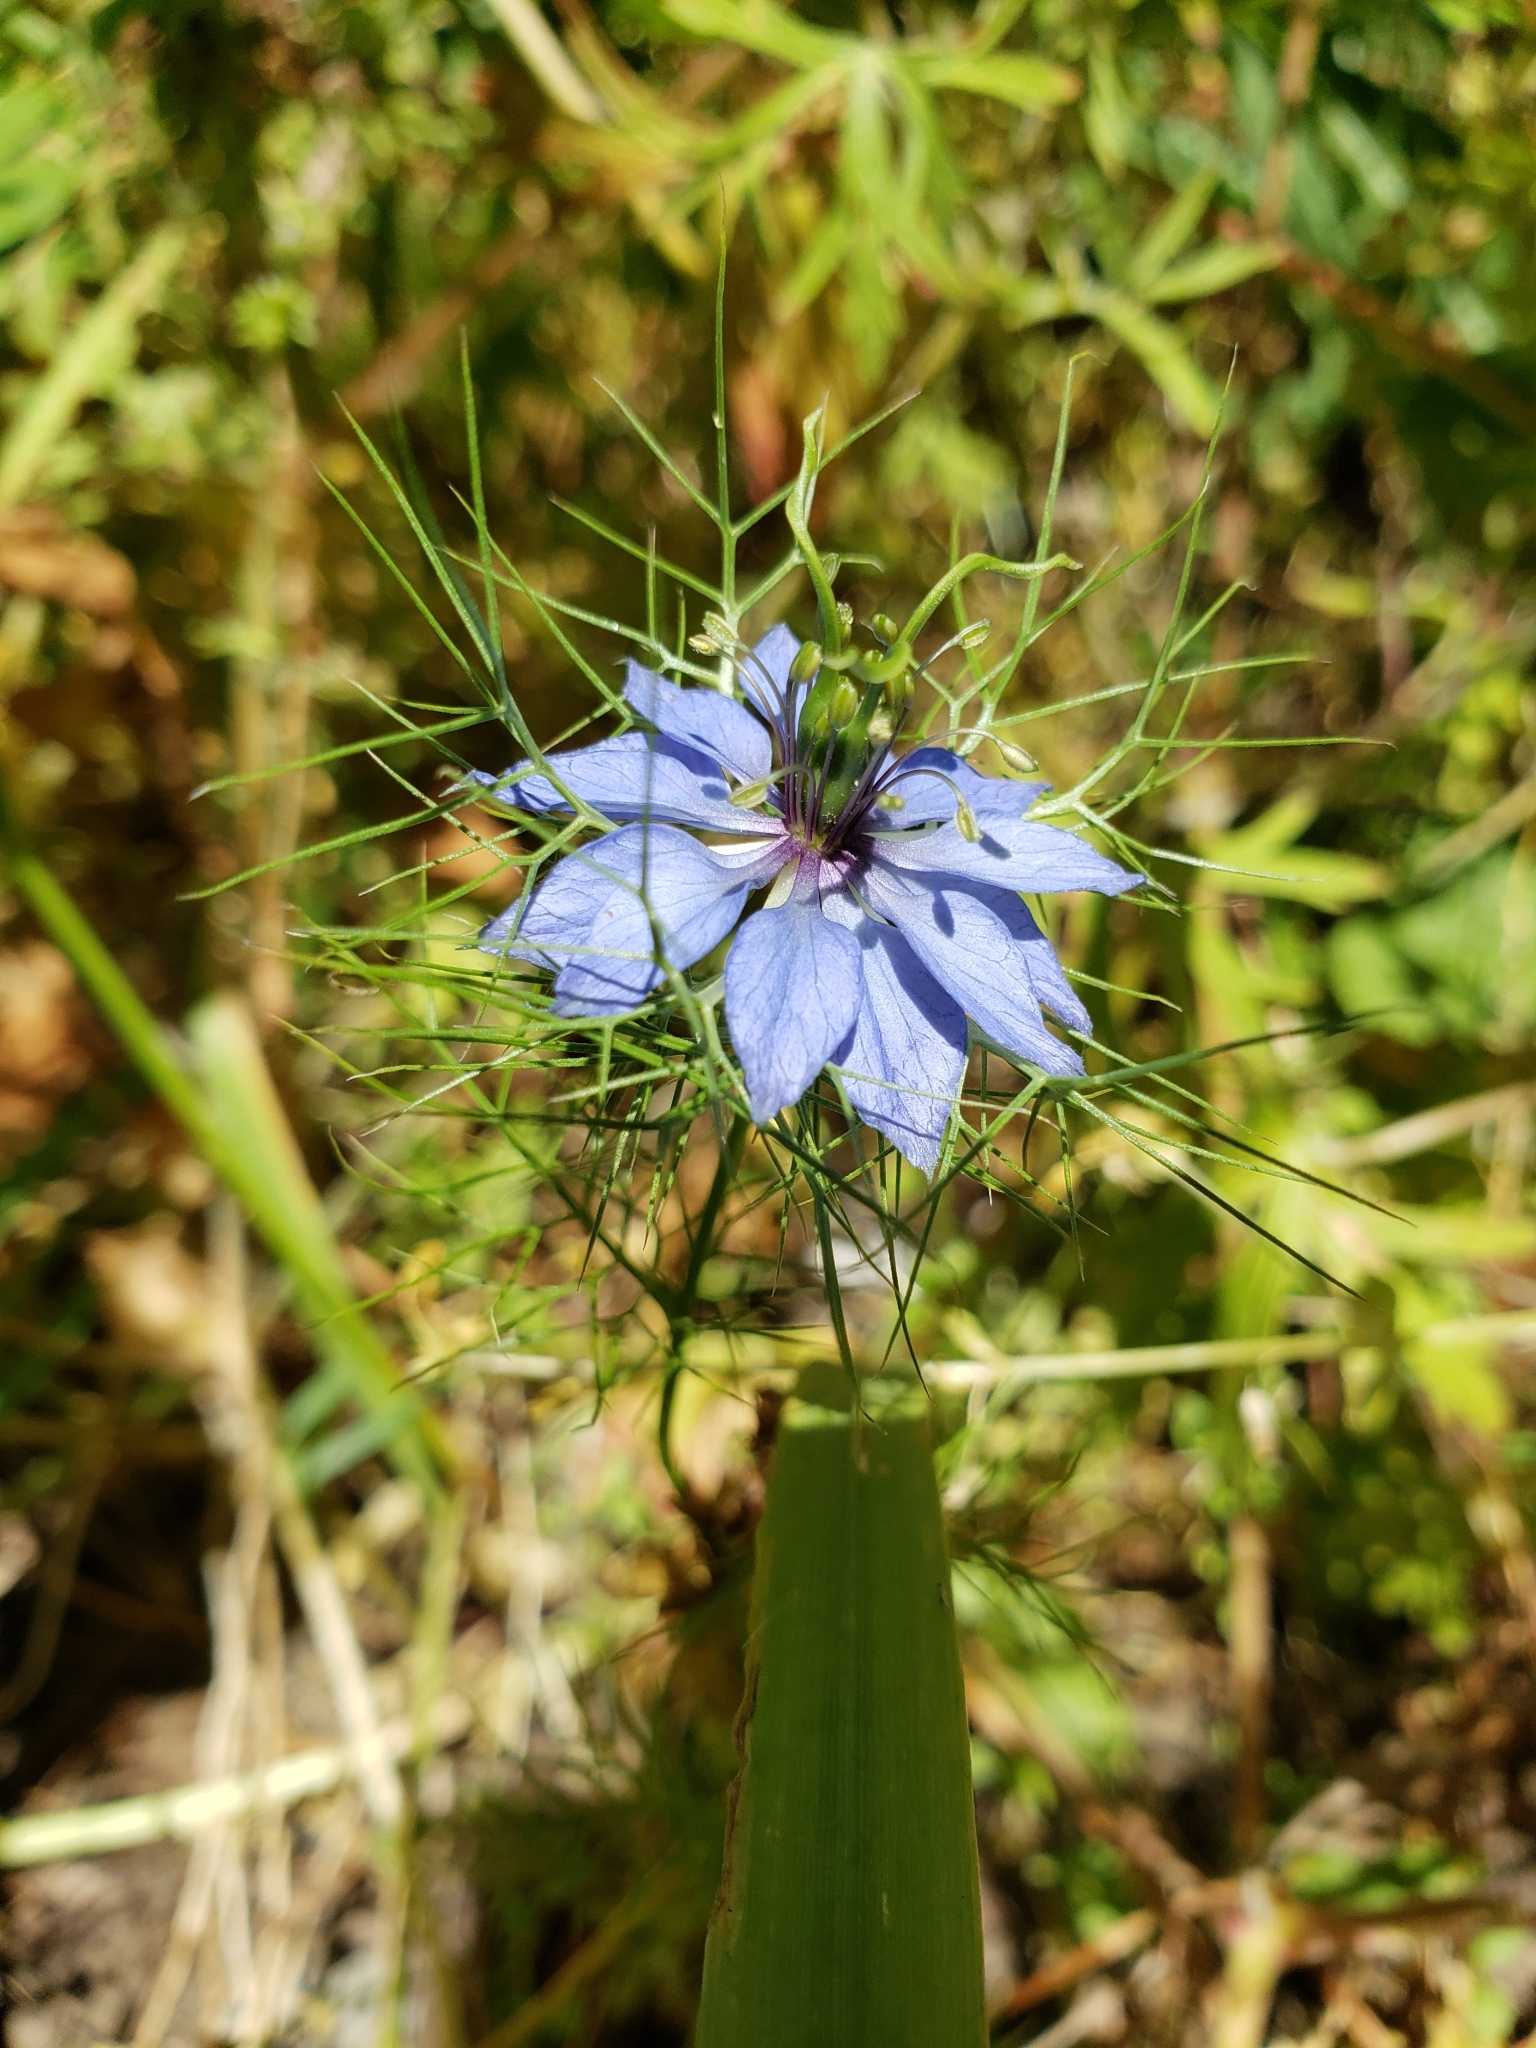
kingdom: Plantae
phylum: Tracheophyta
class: Magnoliopsida
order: Ranunculales
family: Ranunculaceae
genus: Nigella
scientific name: Nigella damascena
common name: Love-in-a-mist
